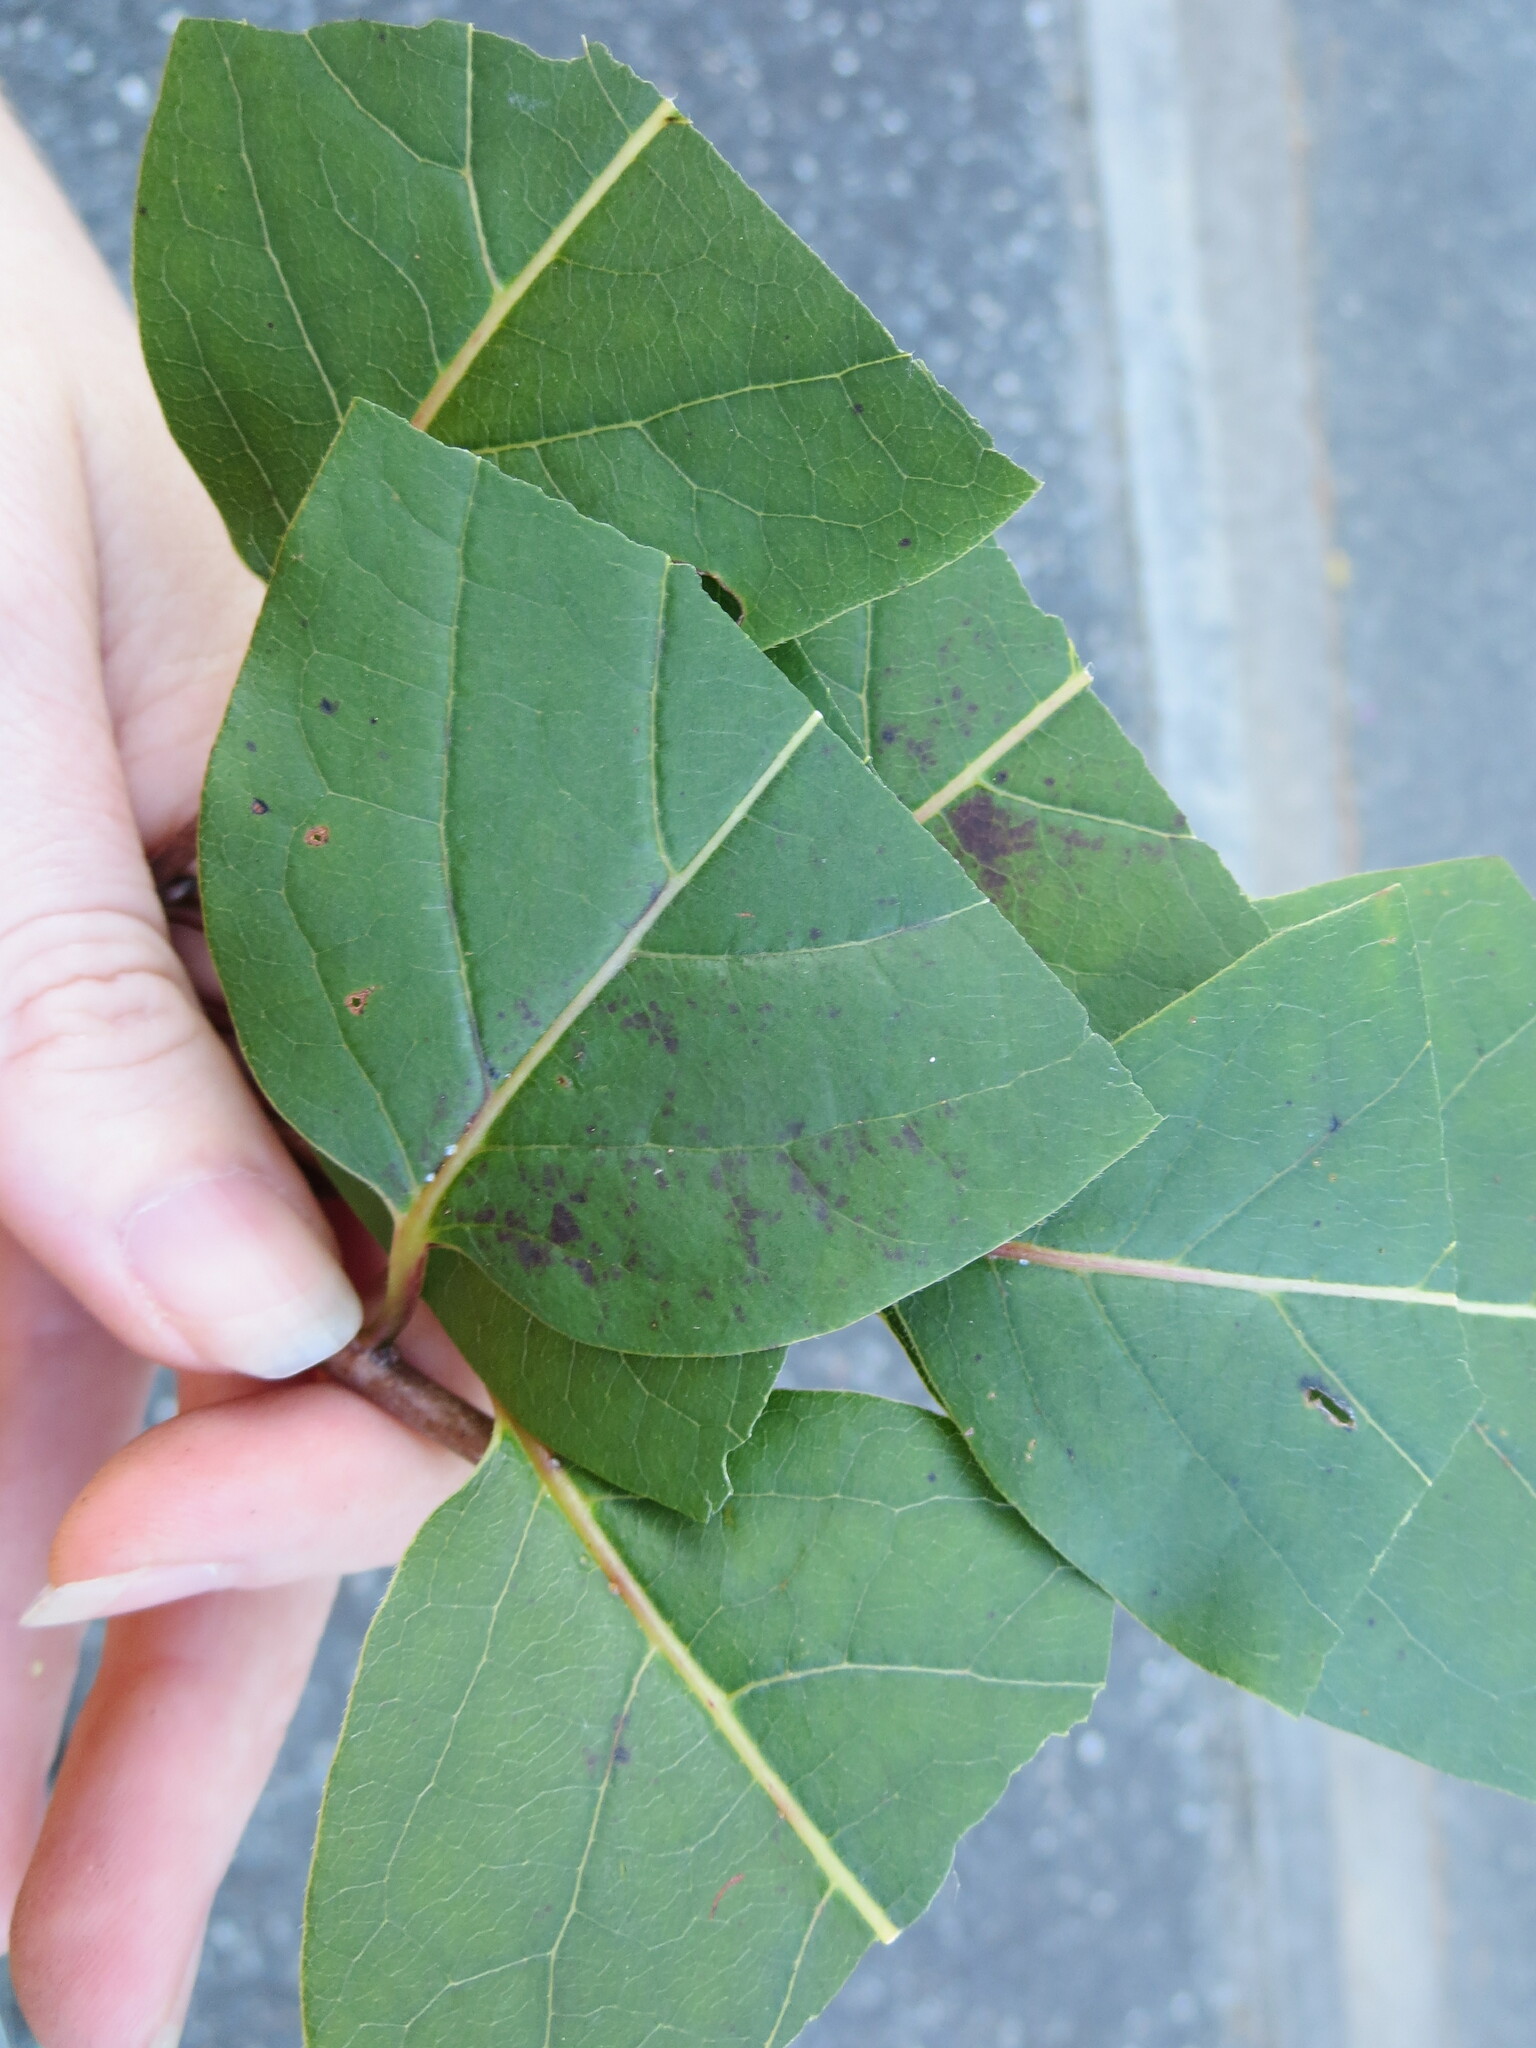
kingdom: Plantae
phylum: Tracheophyta
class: Magnoliopsida
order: Ericales
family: Ebenaceae
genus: Diospyros
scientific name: Diospyros virginiana
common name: Persimmon
